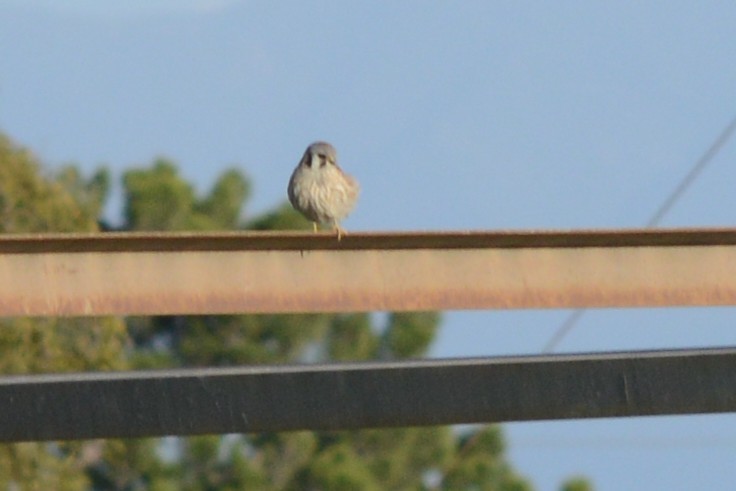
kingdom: Animalia
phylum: Chordata
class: Aves
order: Falconiformes
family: Falconidae
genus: Falco
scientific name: Falco sparverius
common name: American kestrel
